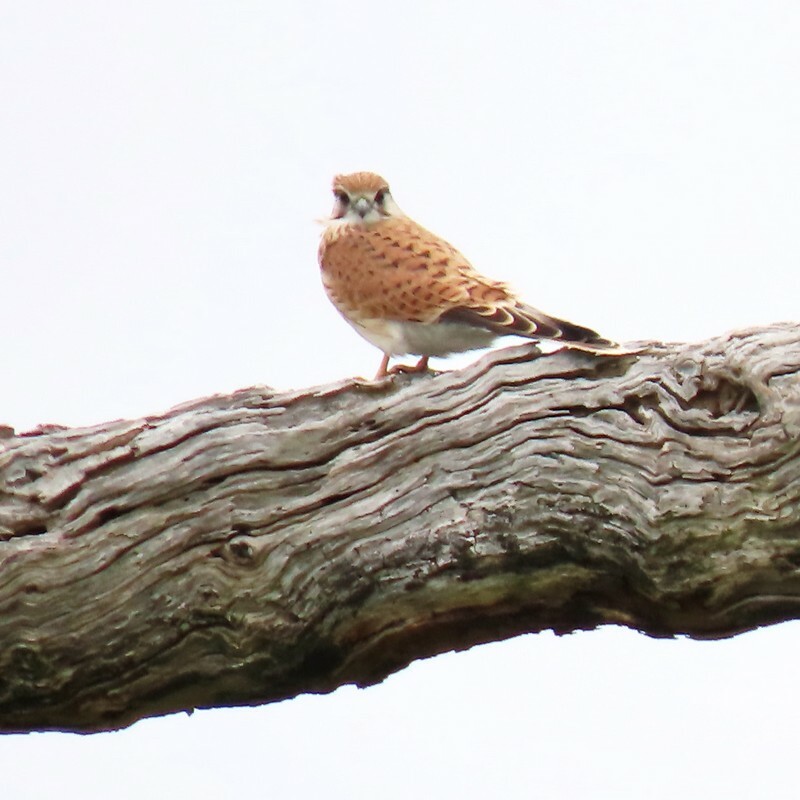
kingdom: Animalia
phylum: Chordata
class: Aves
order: Falconiformes
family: Falconidae
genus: Falco
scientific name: Falco cenchroides
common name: Nankeen kestrel
